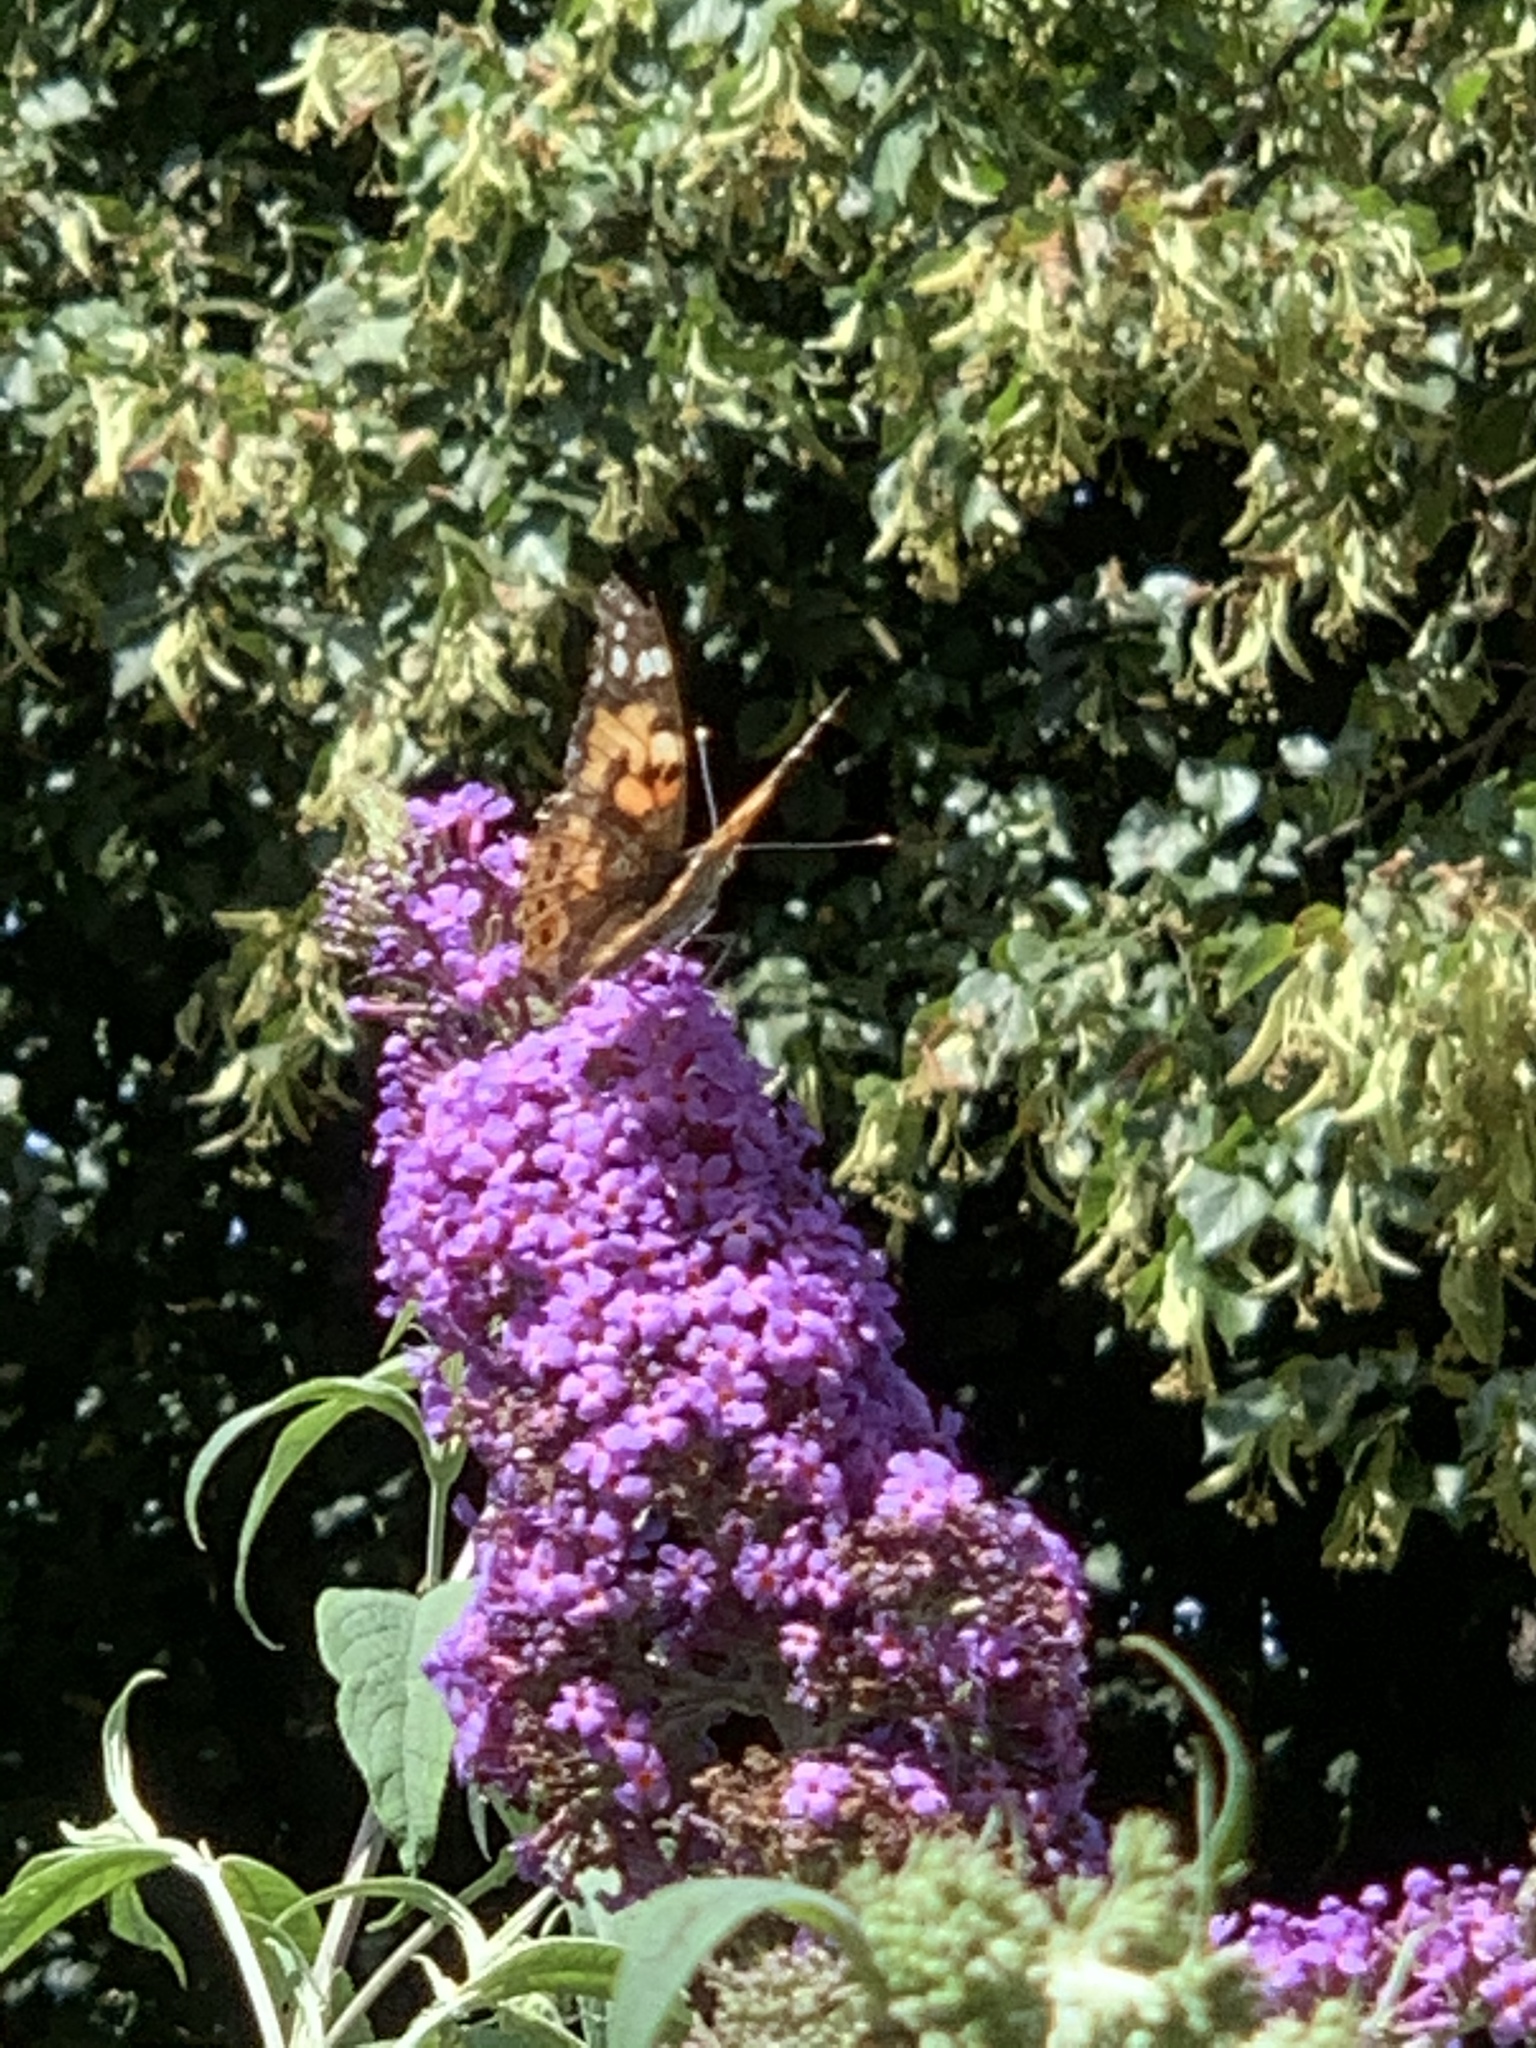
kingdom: Animalia
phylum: Arthropoda
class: Insecta
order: Lepidoptera
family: Nymphalidae
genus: Vanessa
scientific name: Vanessa cardui
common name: Painted lady
